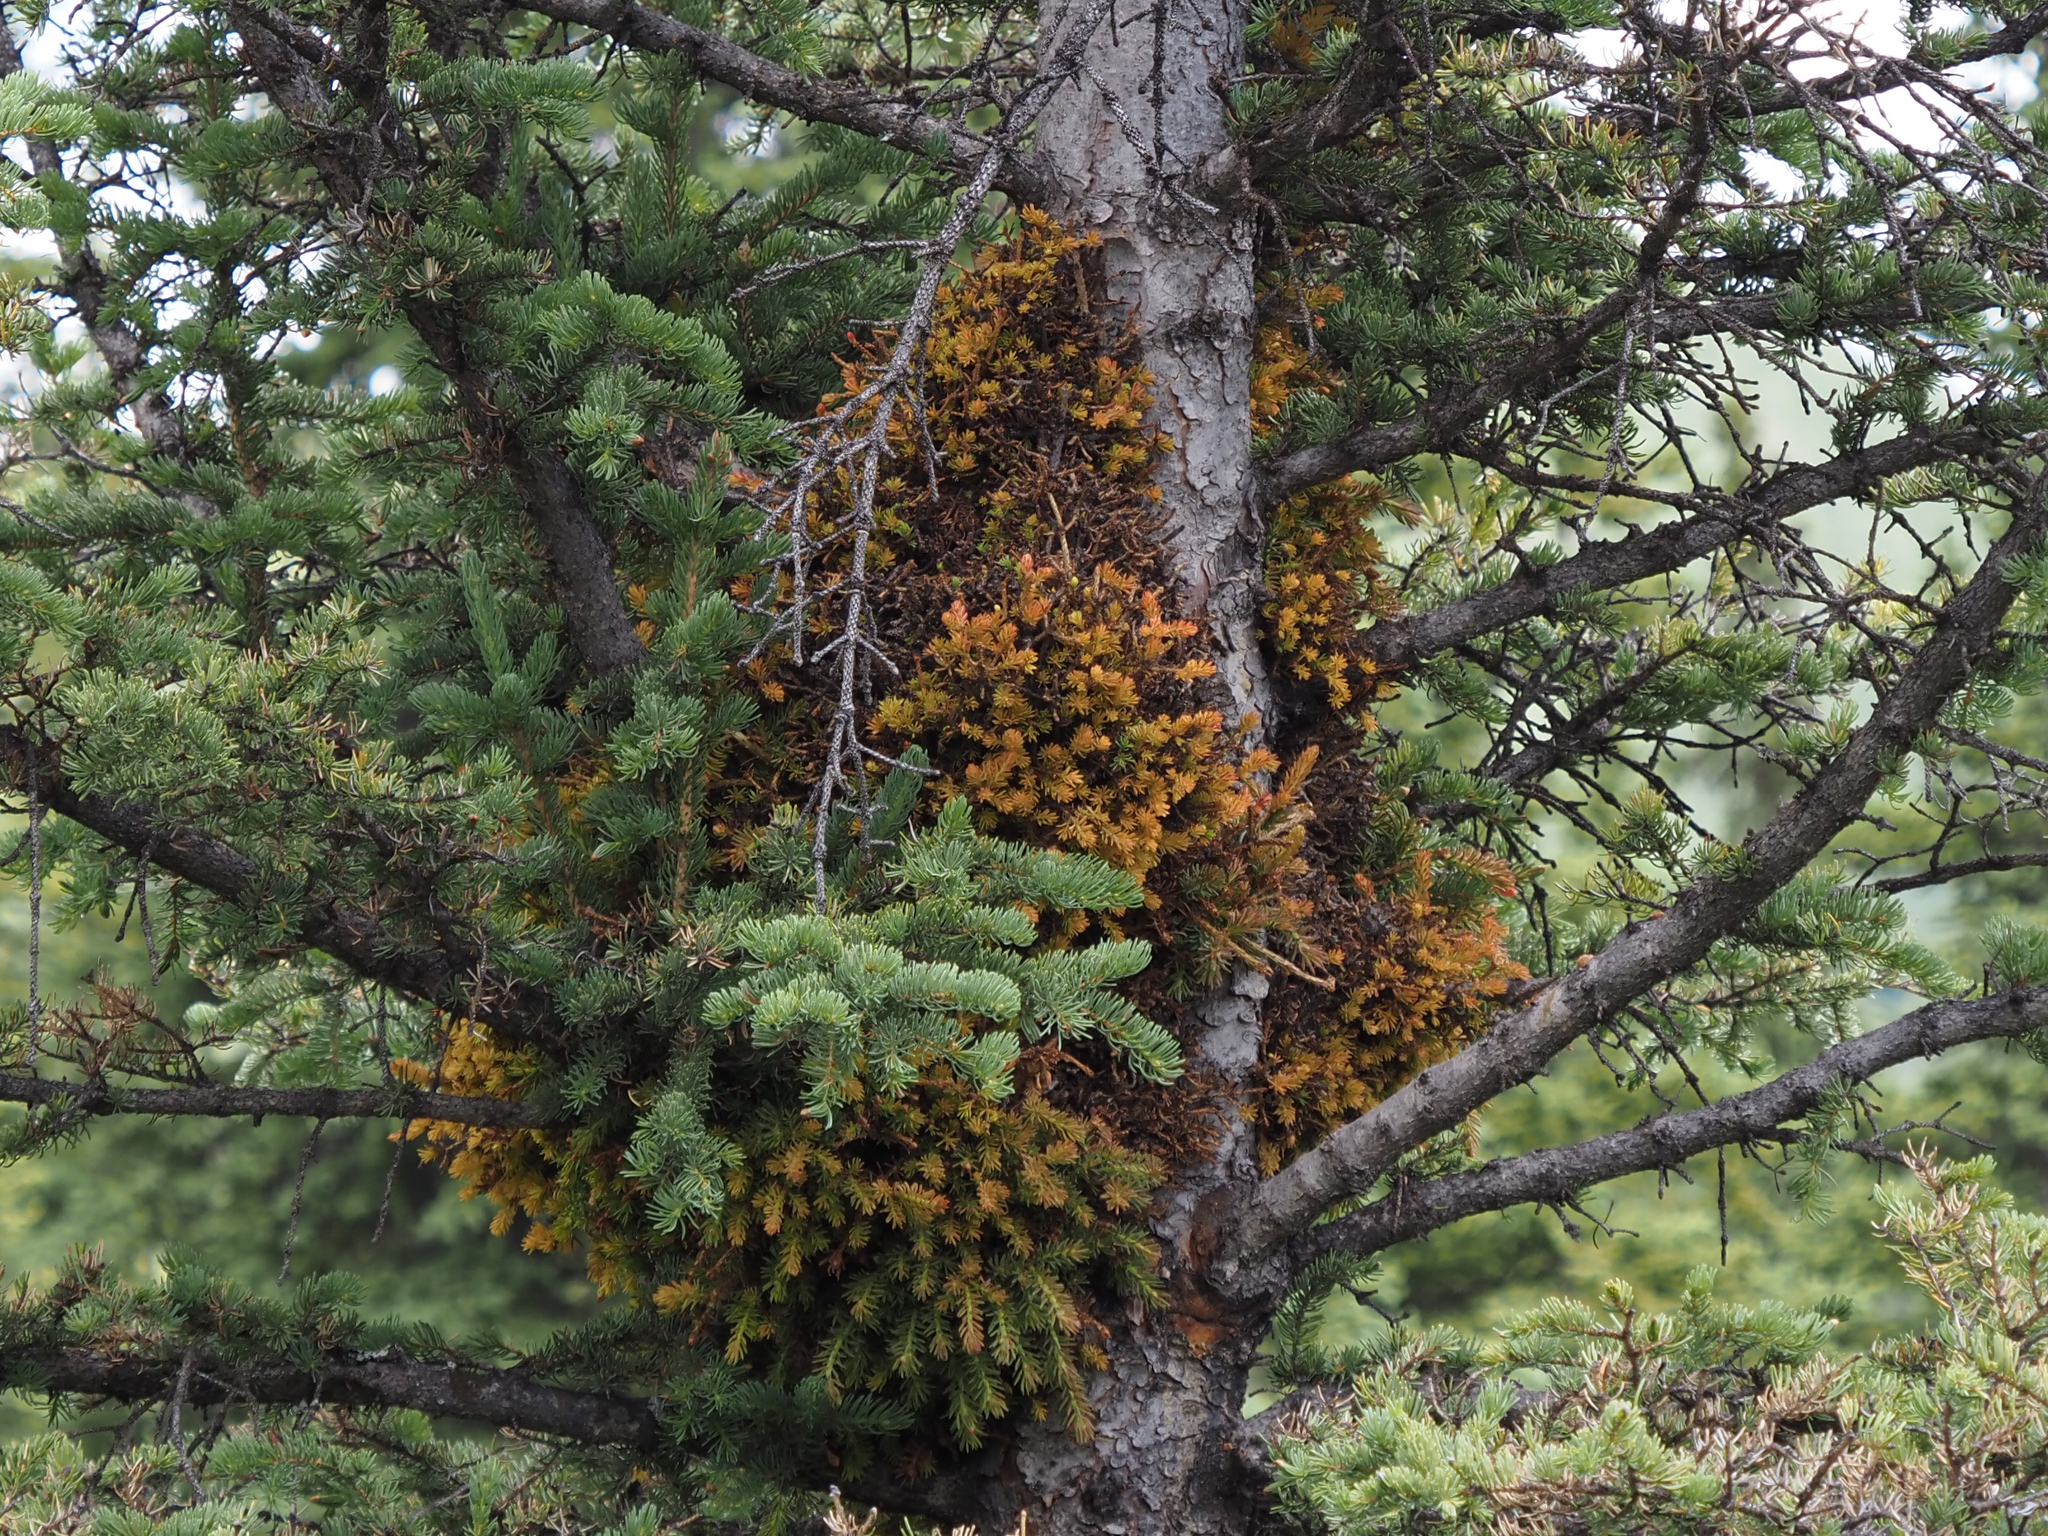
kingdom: Fungi
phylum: Basidiomycota
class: Pucciniomycetes
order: Pucciniales
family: Coleosporiaceae
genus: Chrysomyxa
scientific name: Chrysomyxa arctostaphyli
